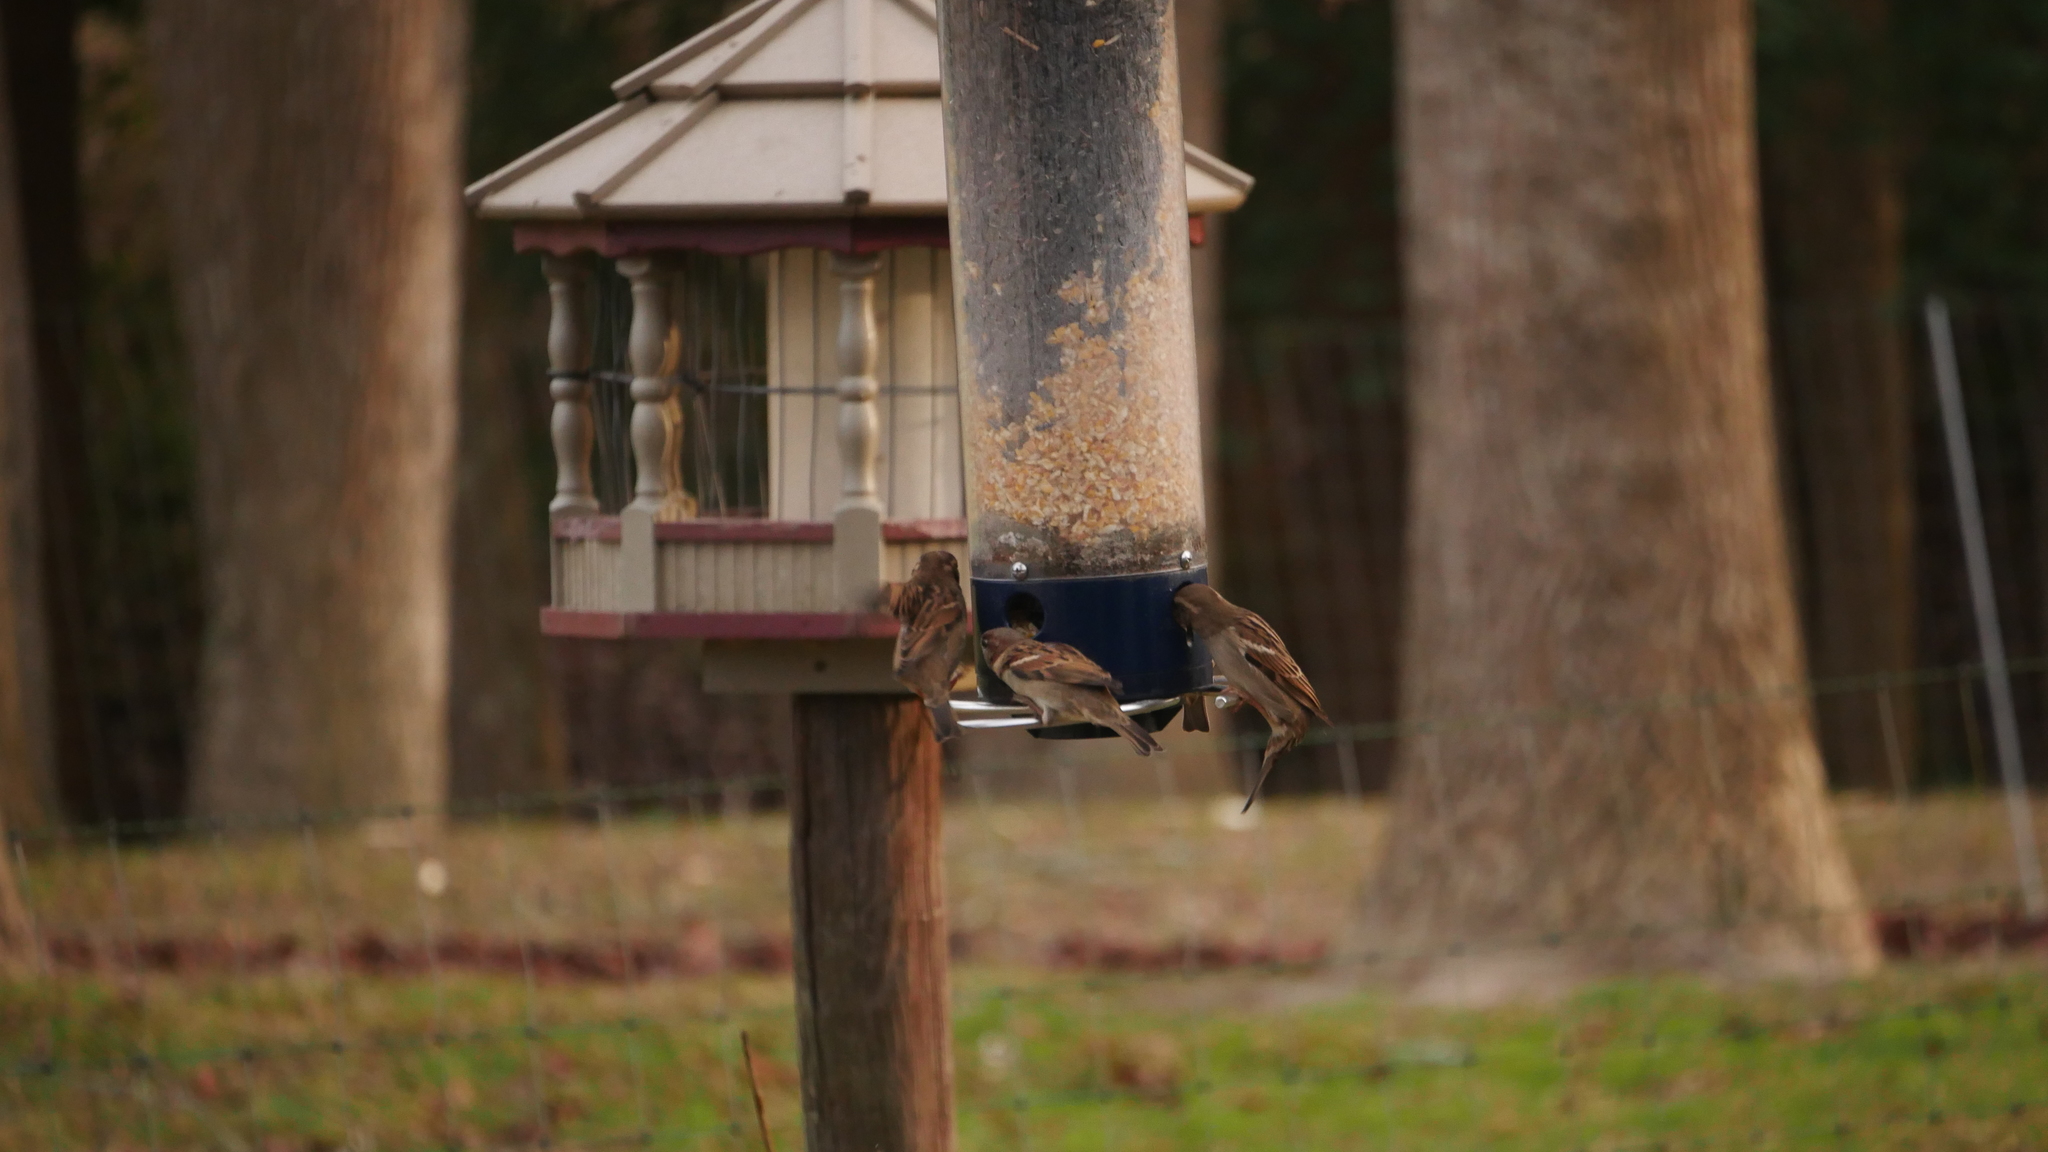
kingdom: Animalia
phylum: Chordata
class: Aves
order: Passeriformes
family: Passeridae
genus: Passer
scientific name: Passer domesticus
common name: House sparrow
